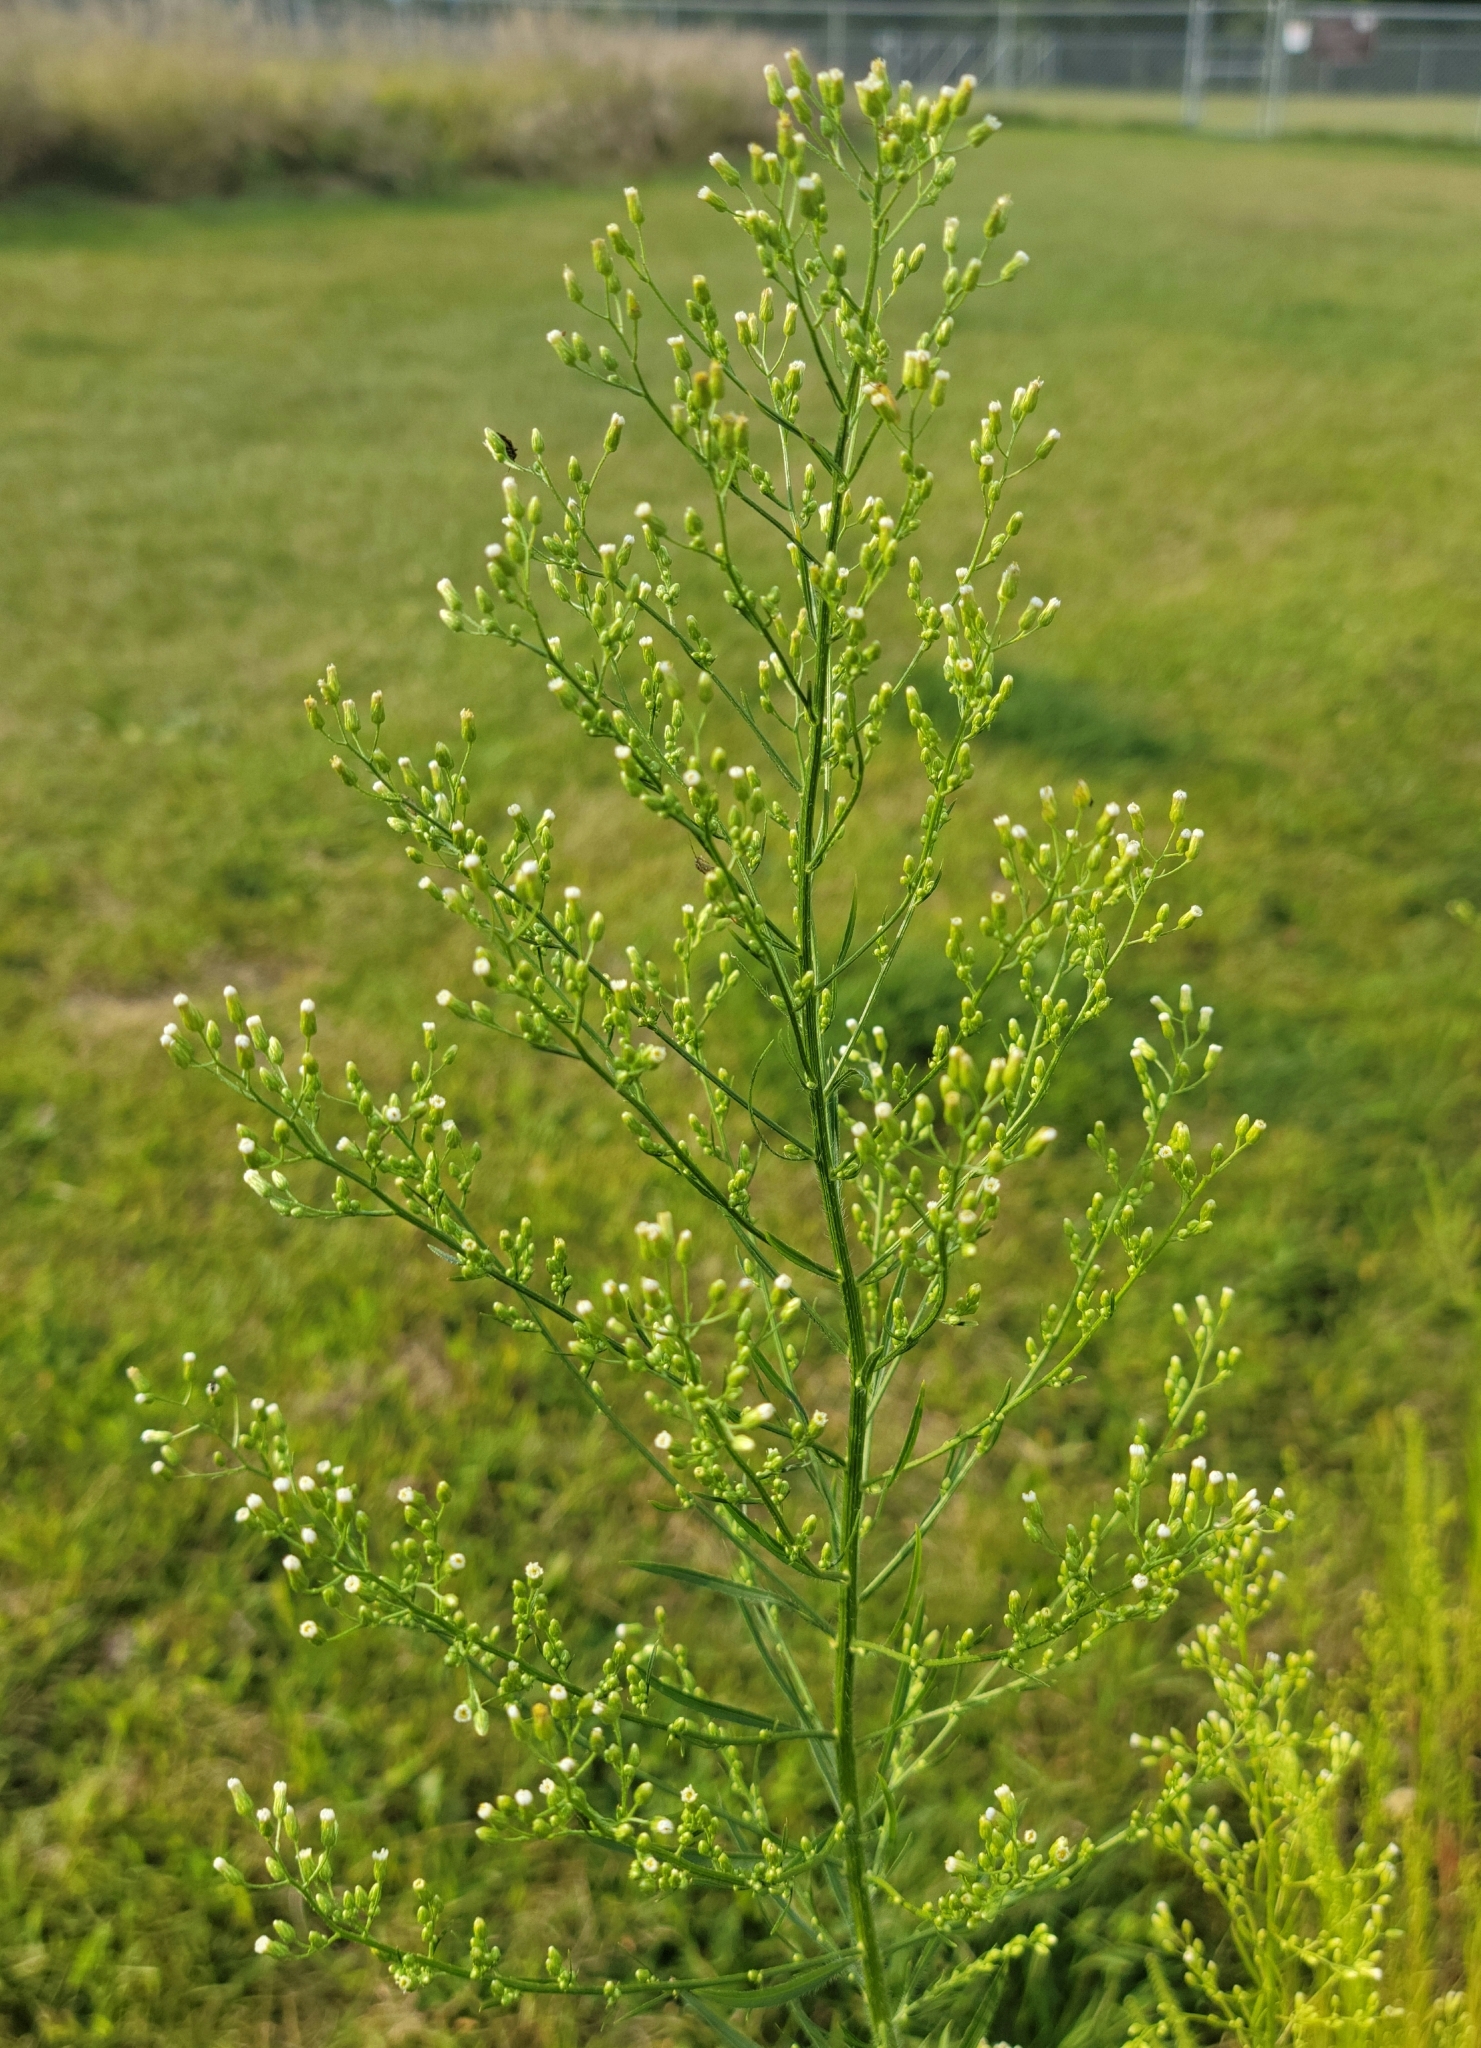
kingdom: Plantae
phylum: Tracheophyta
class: Magnoliopsida
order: Asterales
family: Asteraceae
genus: Erigeron
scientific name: Erigeron canadensis
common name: Canadian fleabane
